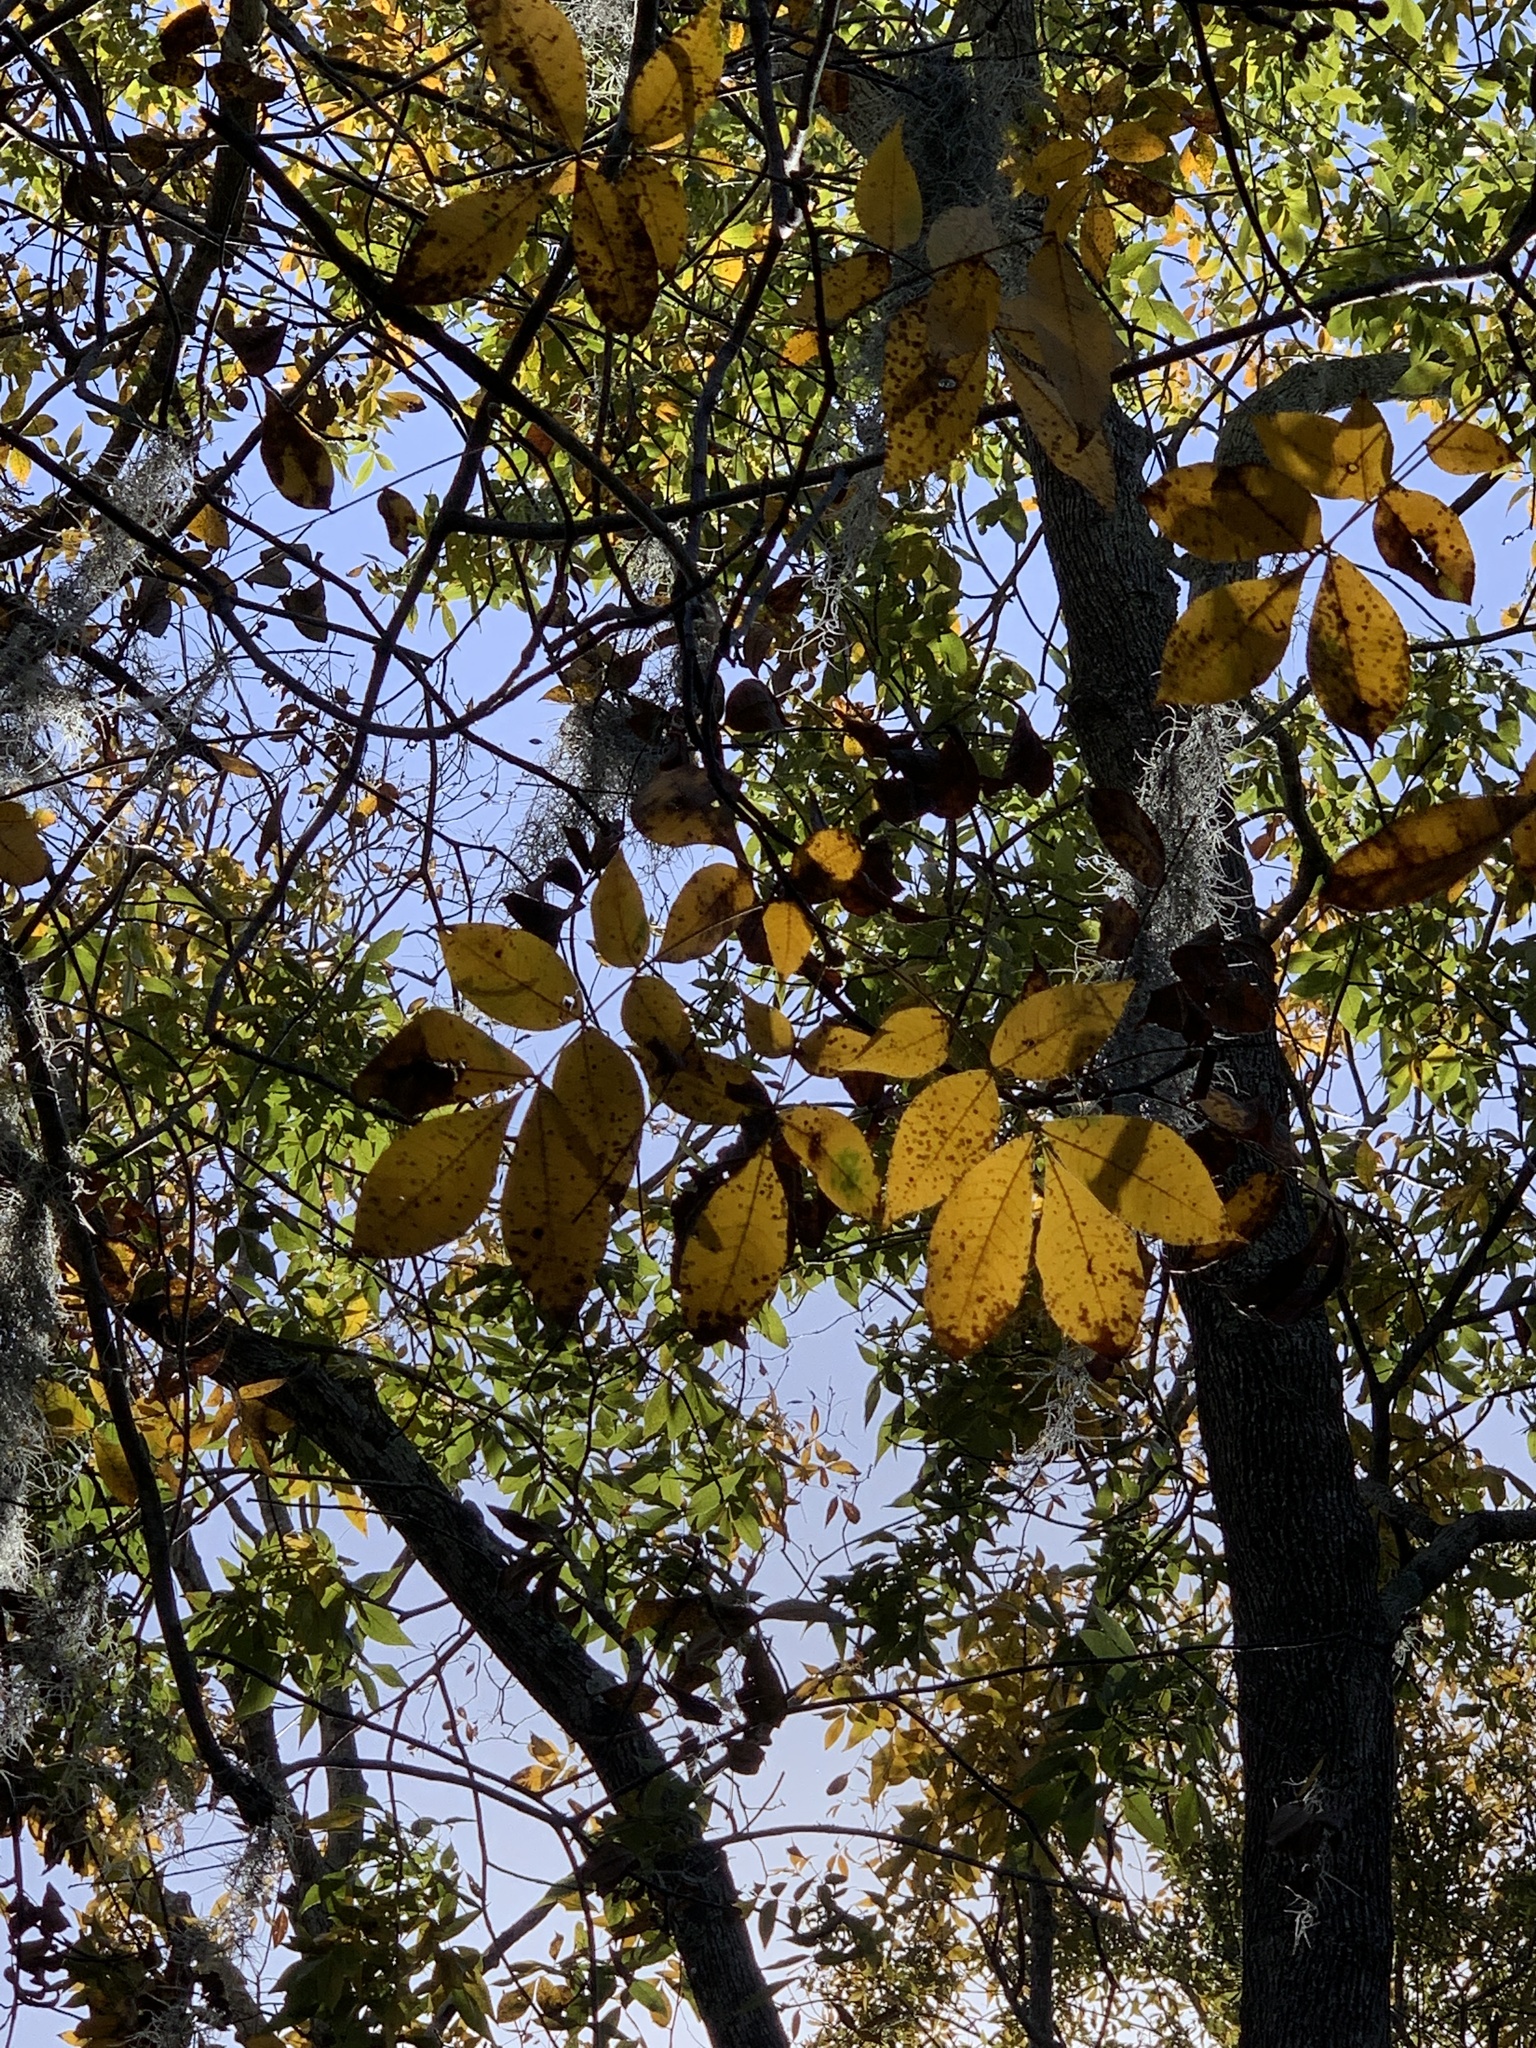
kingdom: Plantae
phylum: Tracheophyta
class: Magnoliopsida
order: Fagales
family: Juglandaceae
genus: Carya
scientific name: Carya glabra
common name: Pignut hickory
